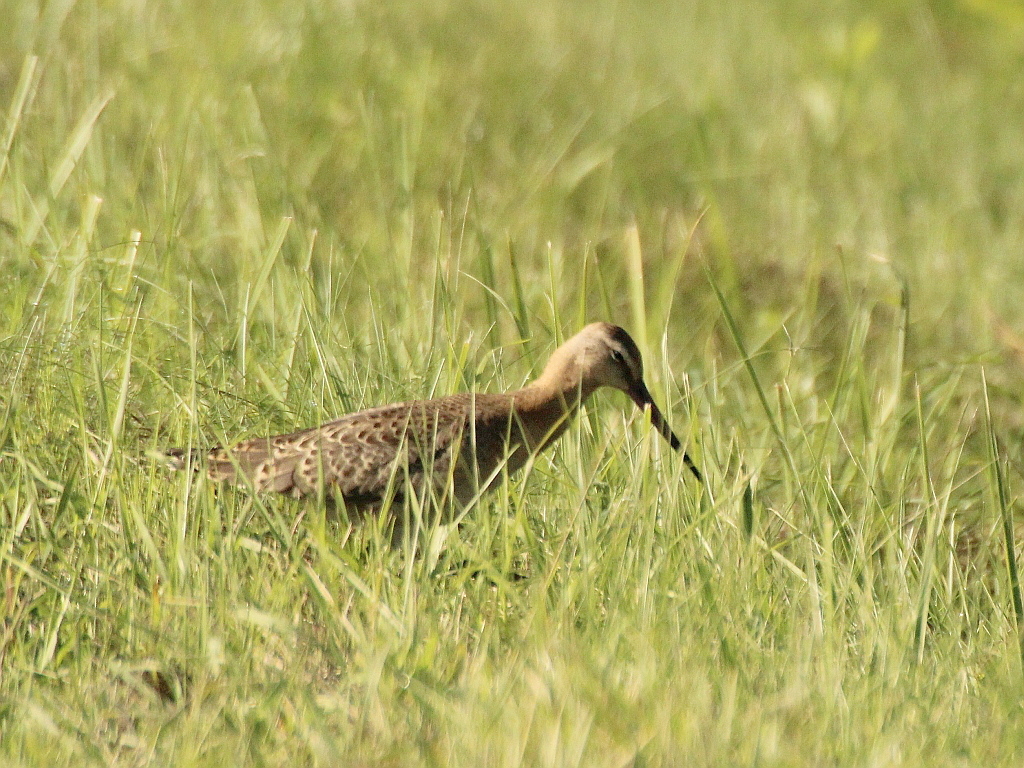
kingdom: Animalia
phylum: Chordata
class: Aves
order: Charadriiformes
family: Scolopacidae
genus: Limosa
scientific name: Limosa limosa
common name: Black-tailed godwit
